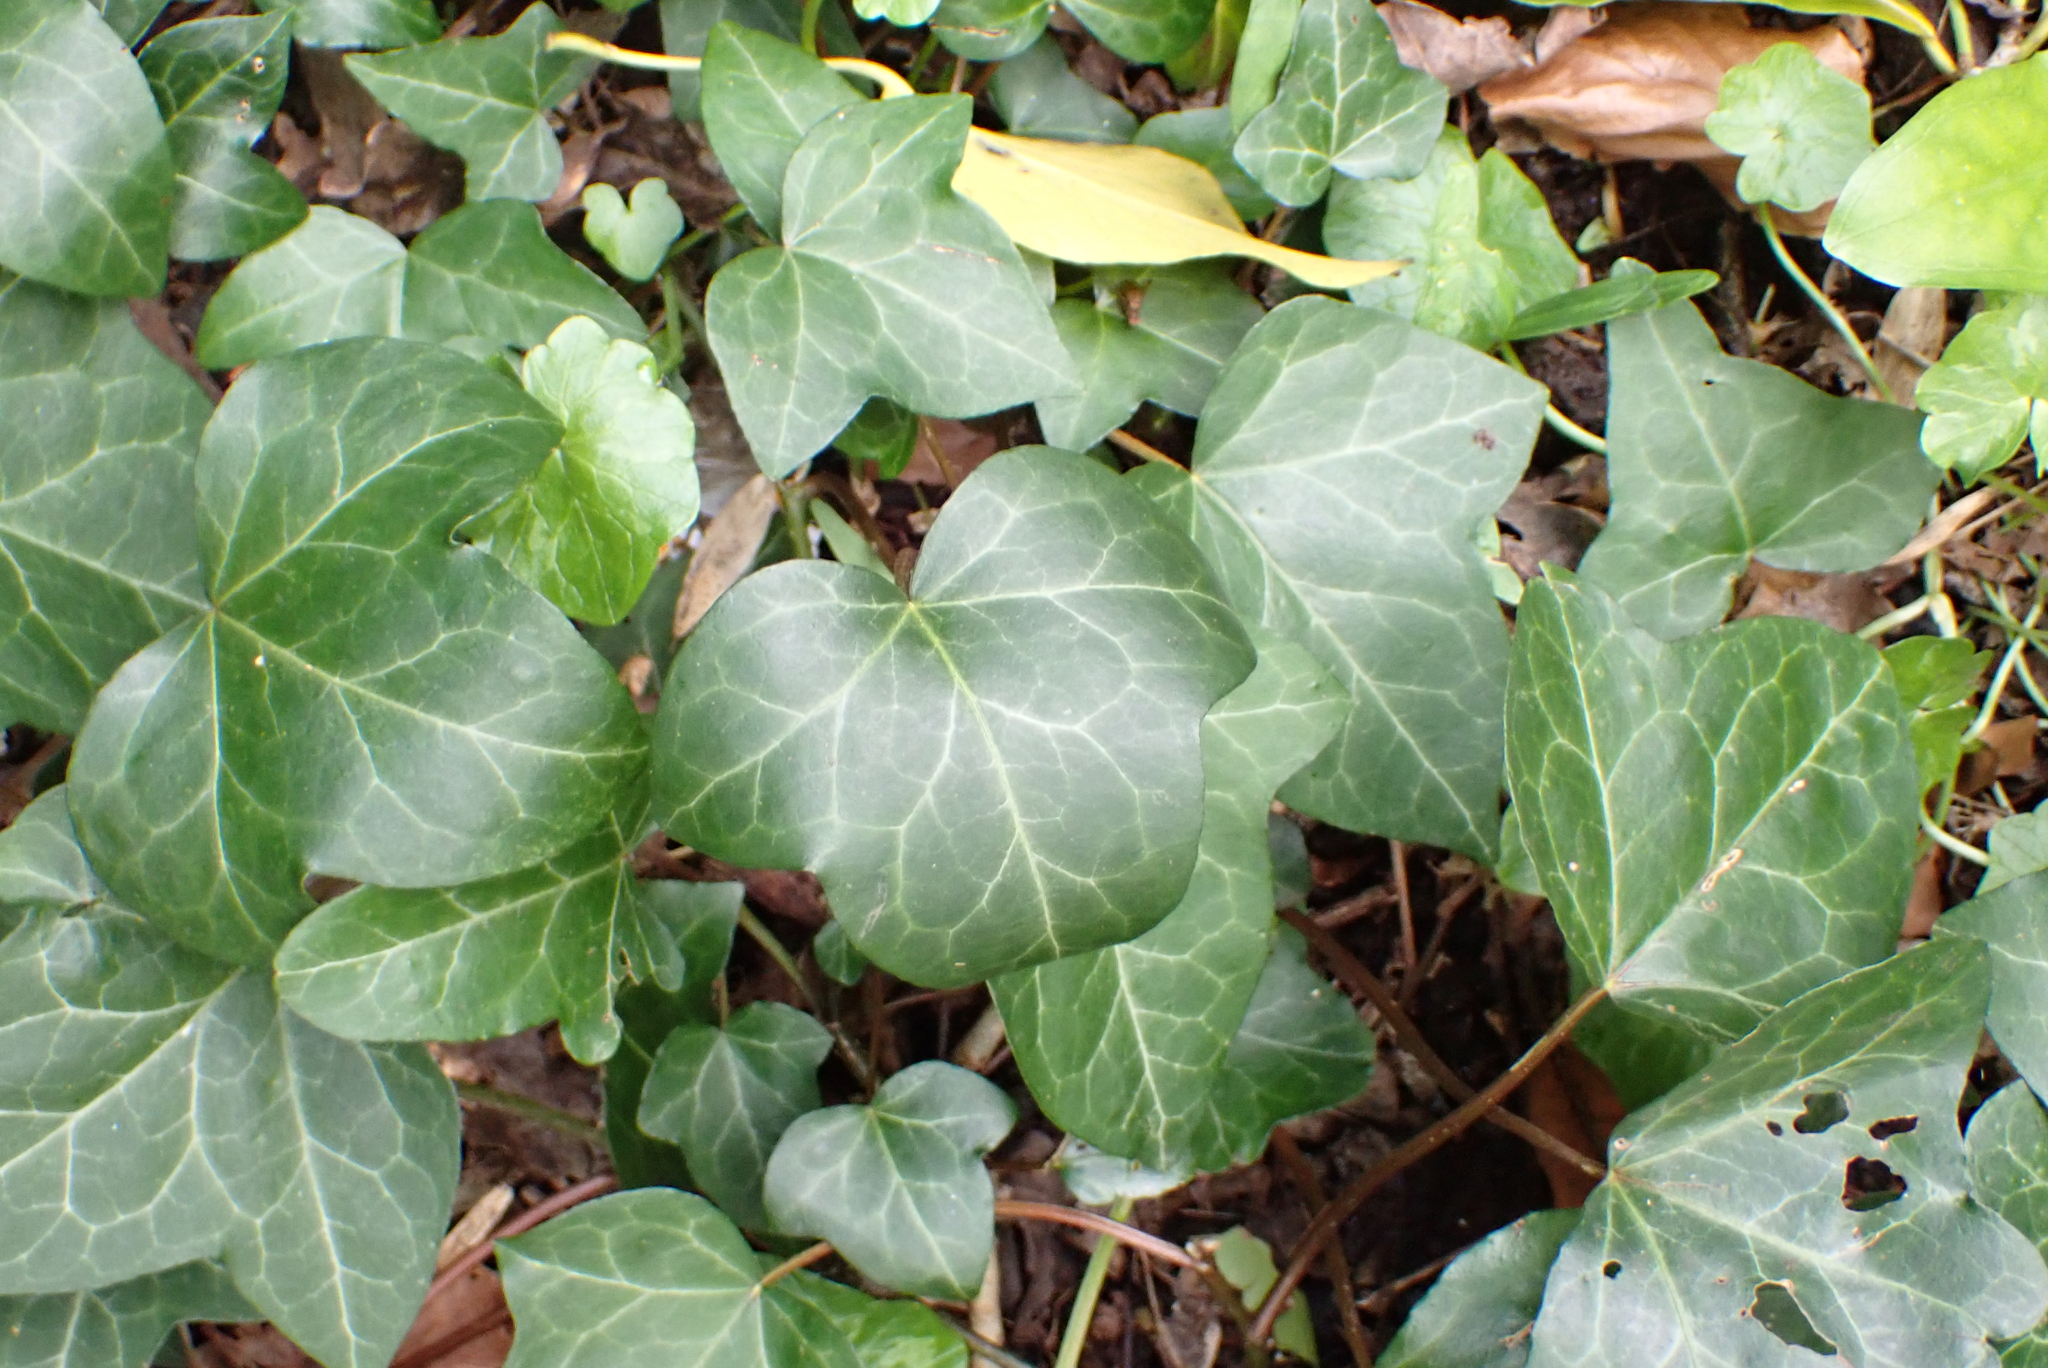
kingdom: Plantae
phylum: Tracheophyta
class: Magnoliopsida
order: Apiales
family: Araliaceae
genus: Hedera
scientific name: Hedera helix
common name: Ivy
